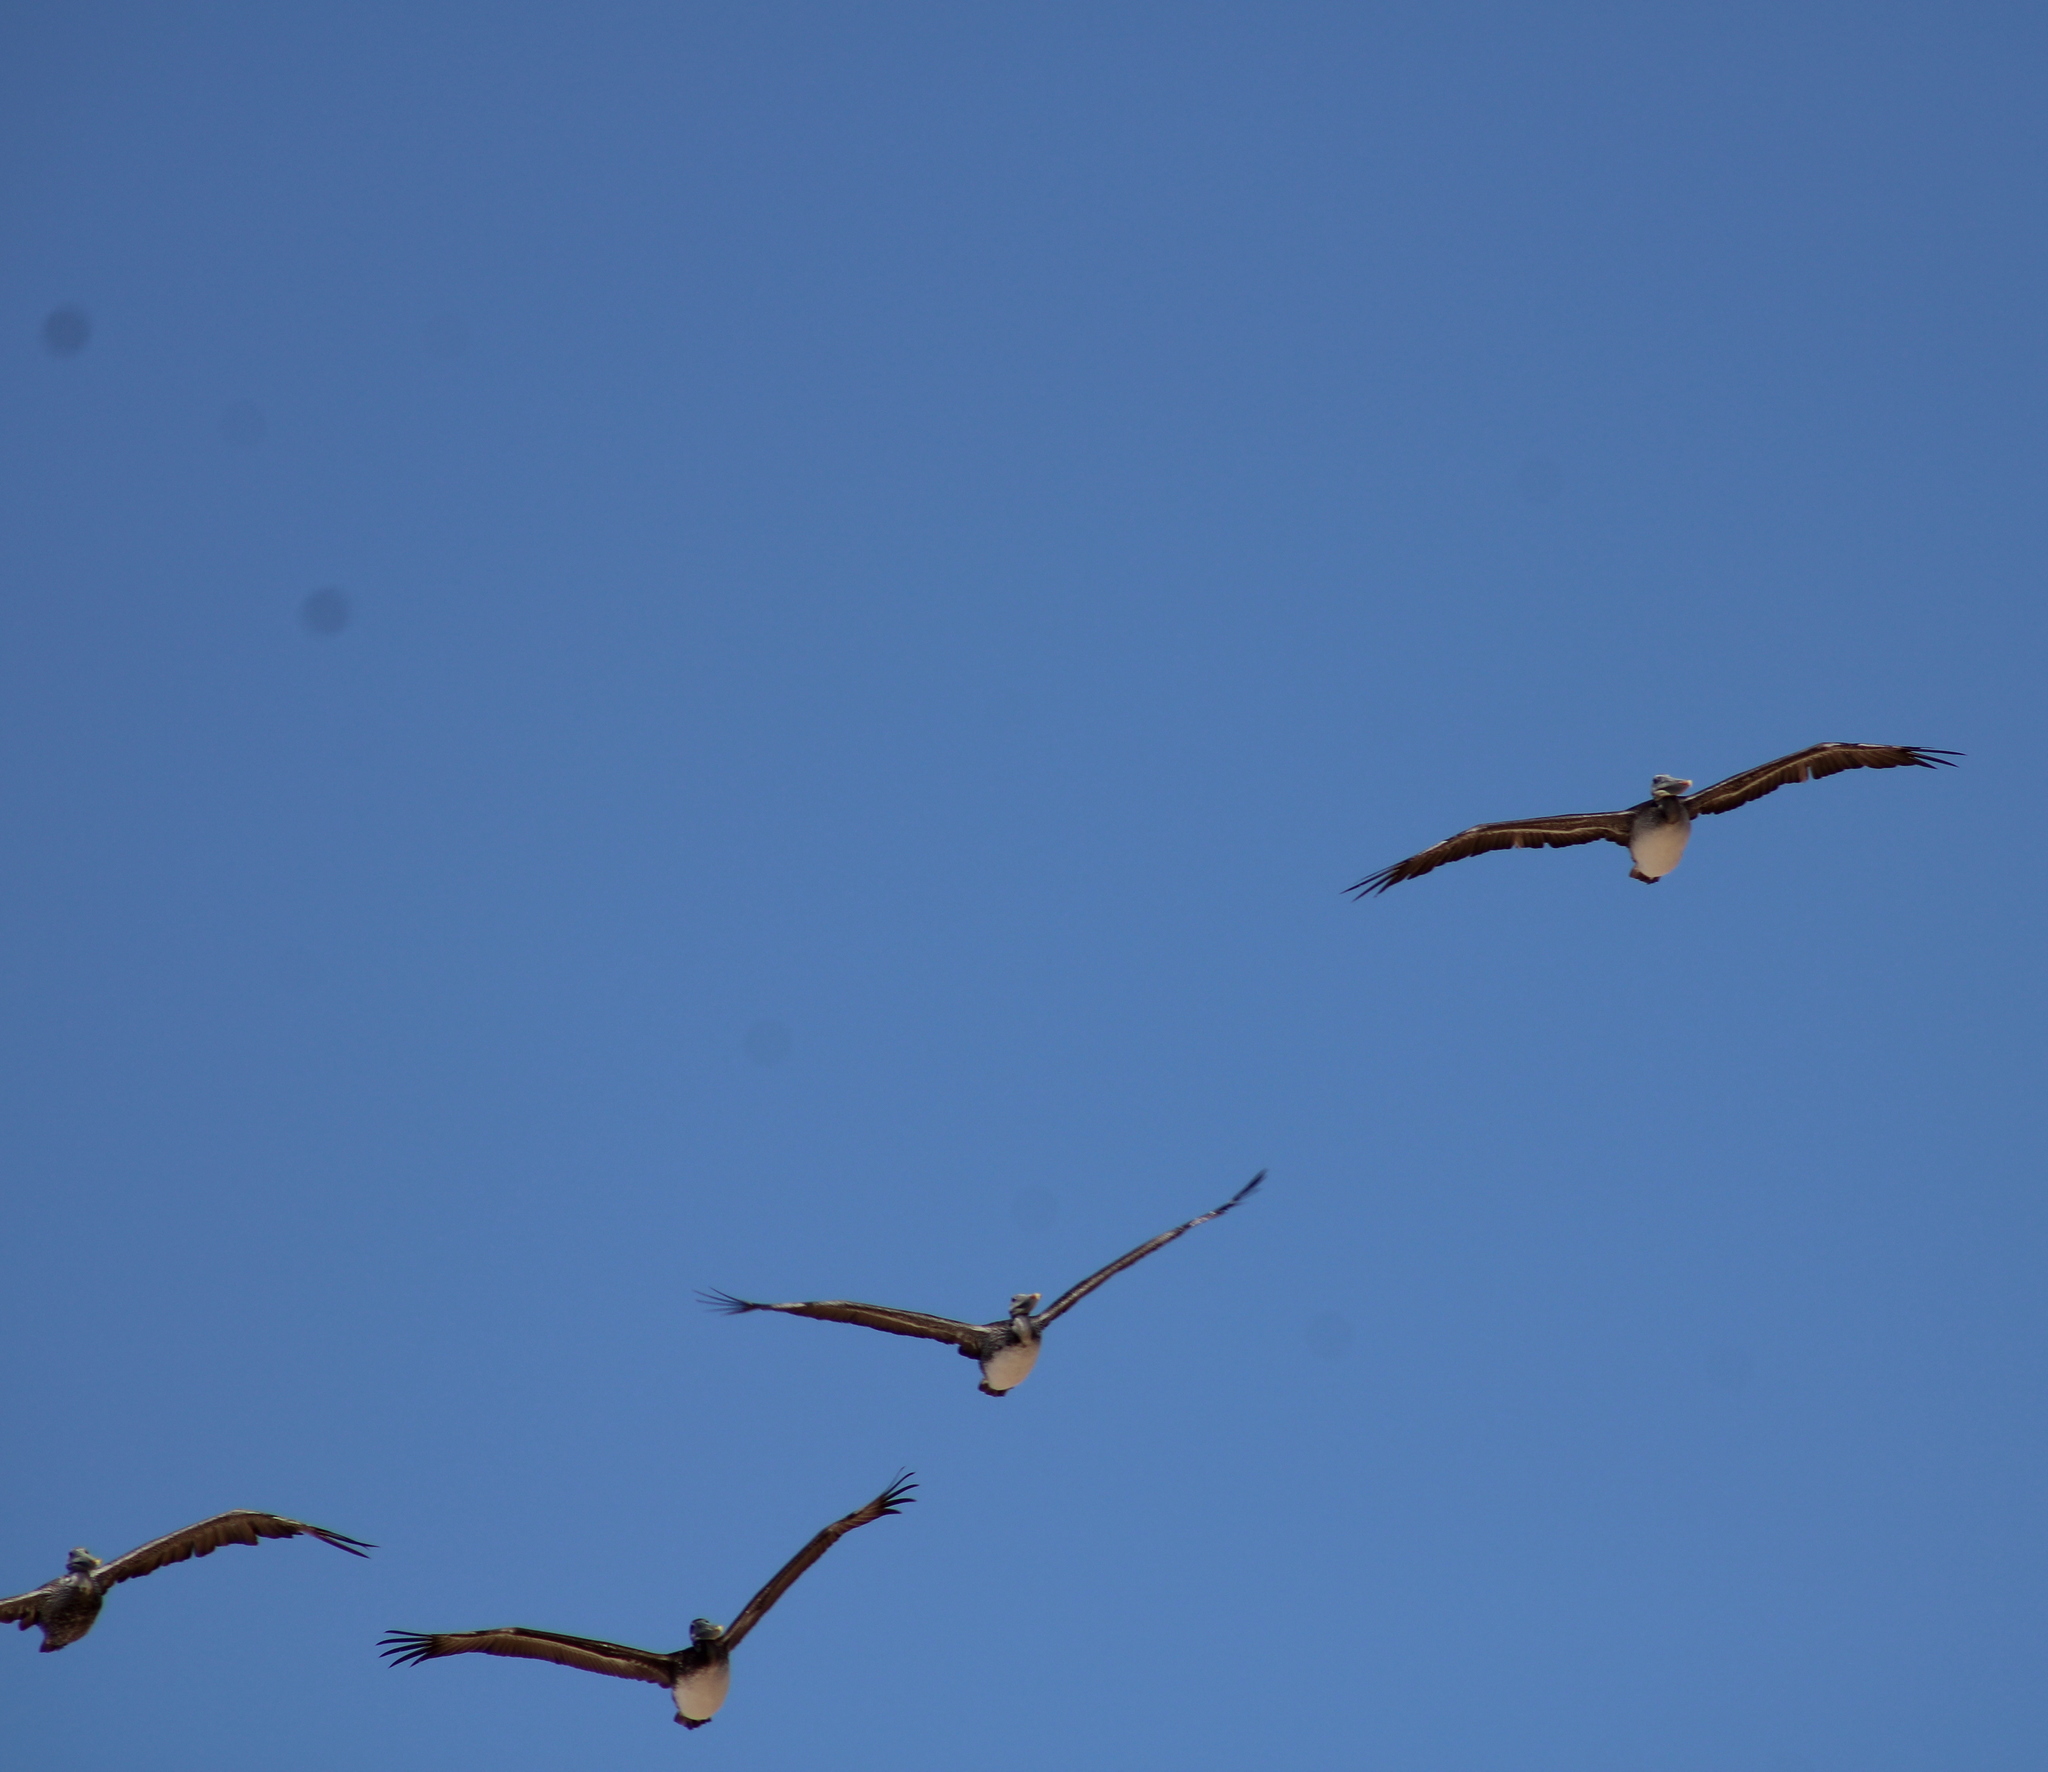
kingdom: Animalia
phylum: Chordata
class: Aves
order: Pelecaniformes
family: Pelecanidae
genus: Pelecanus
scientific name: Pelecanus occidentalis
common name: Brown pelican
